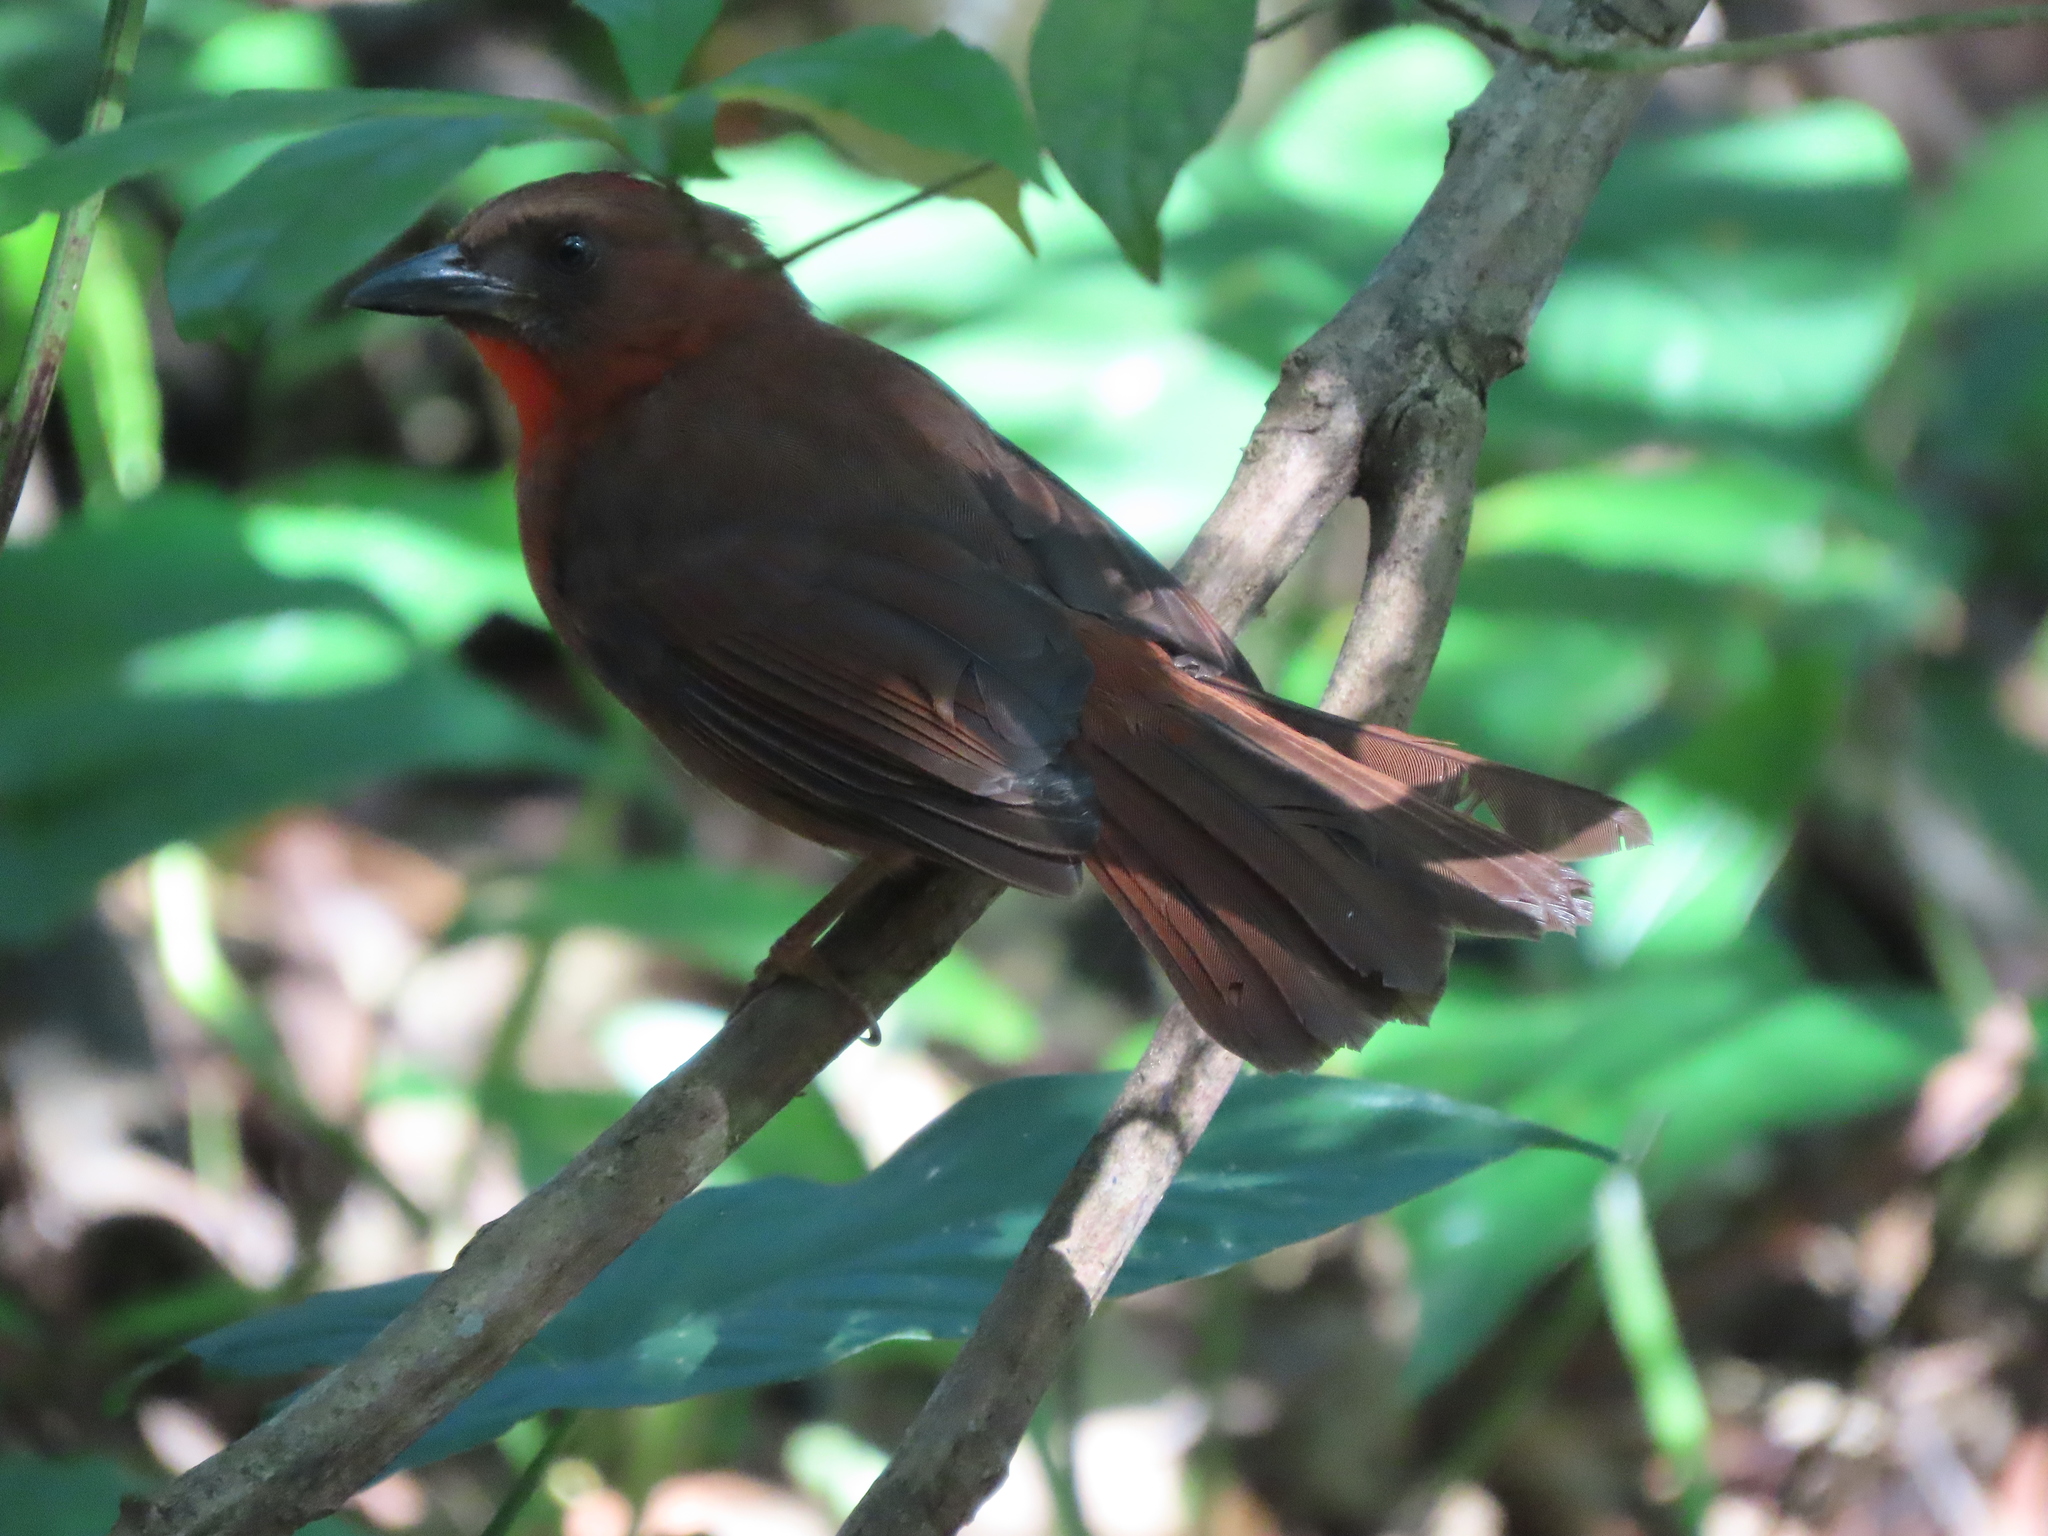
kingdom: Animalia
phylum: Chordata
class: Aves
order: Passeriformes
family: Cardinalidae
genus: Habia
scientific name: Habia fuscicauda
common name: Red-throated ant-tanager
